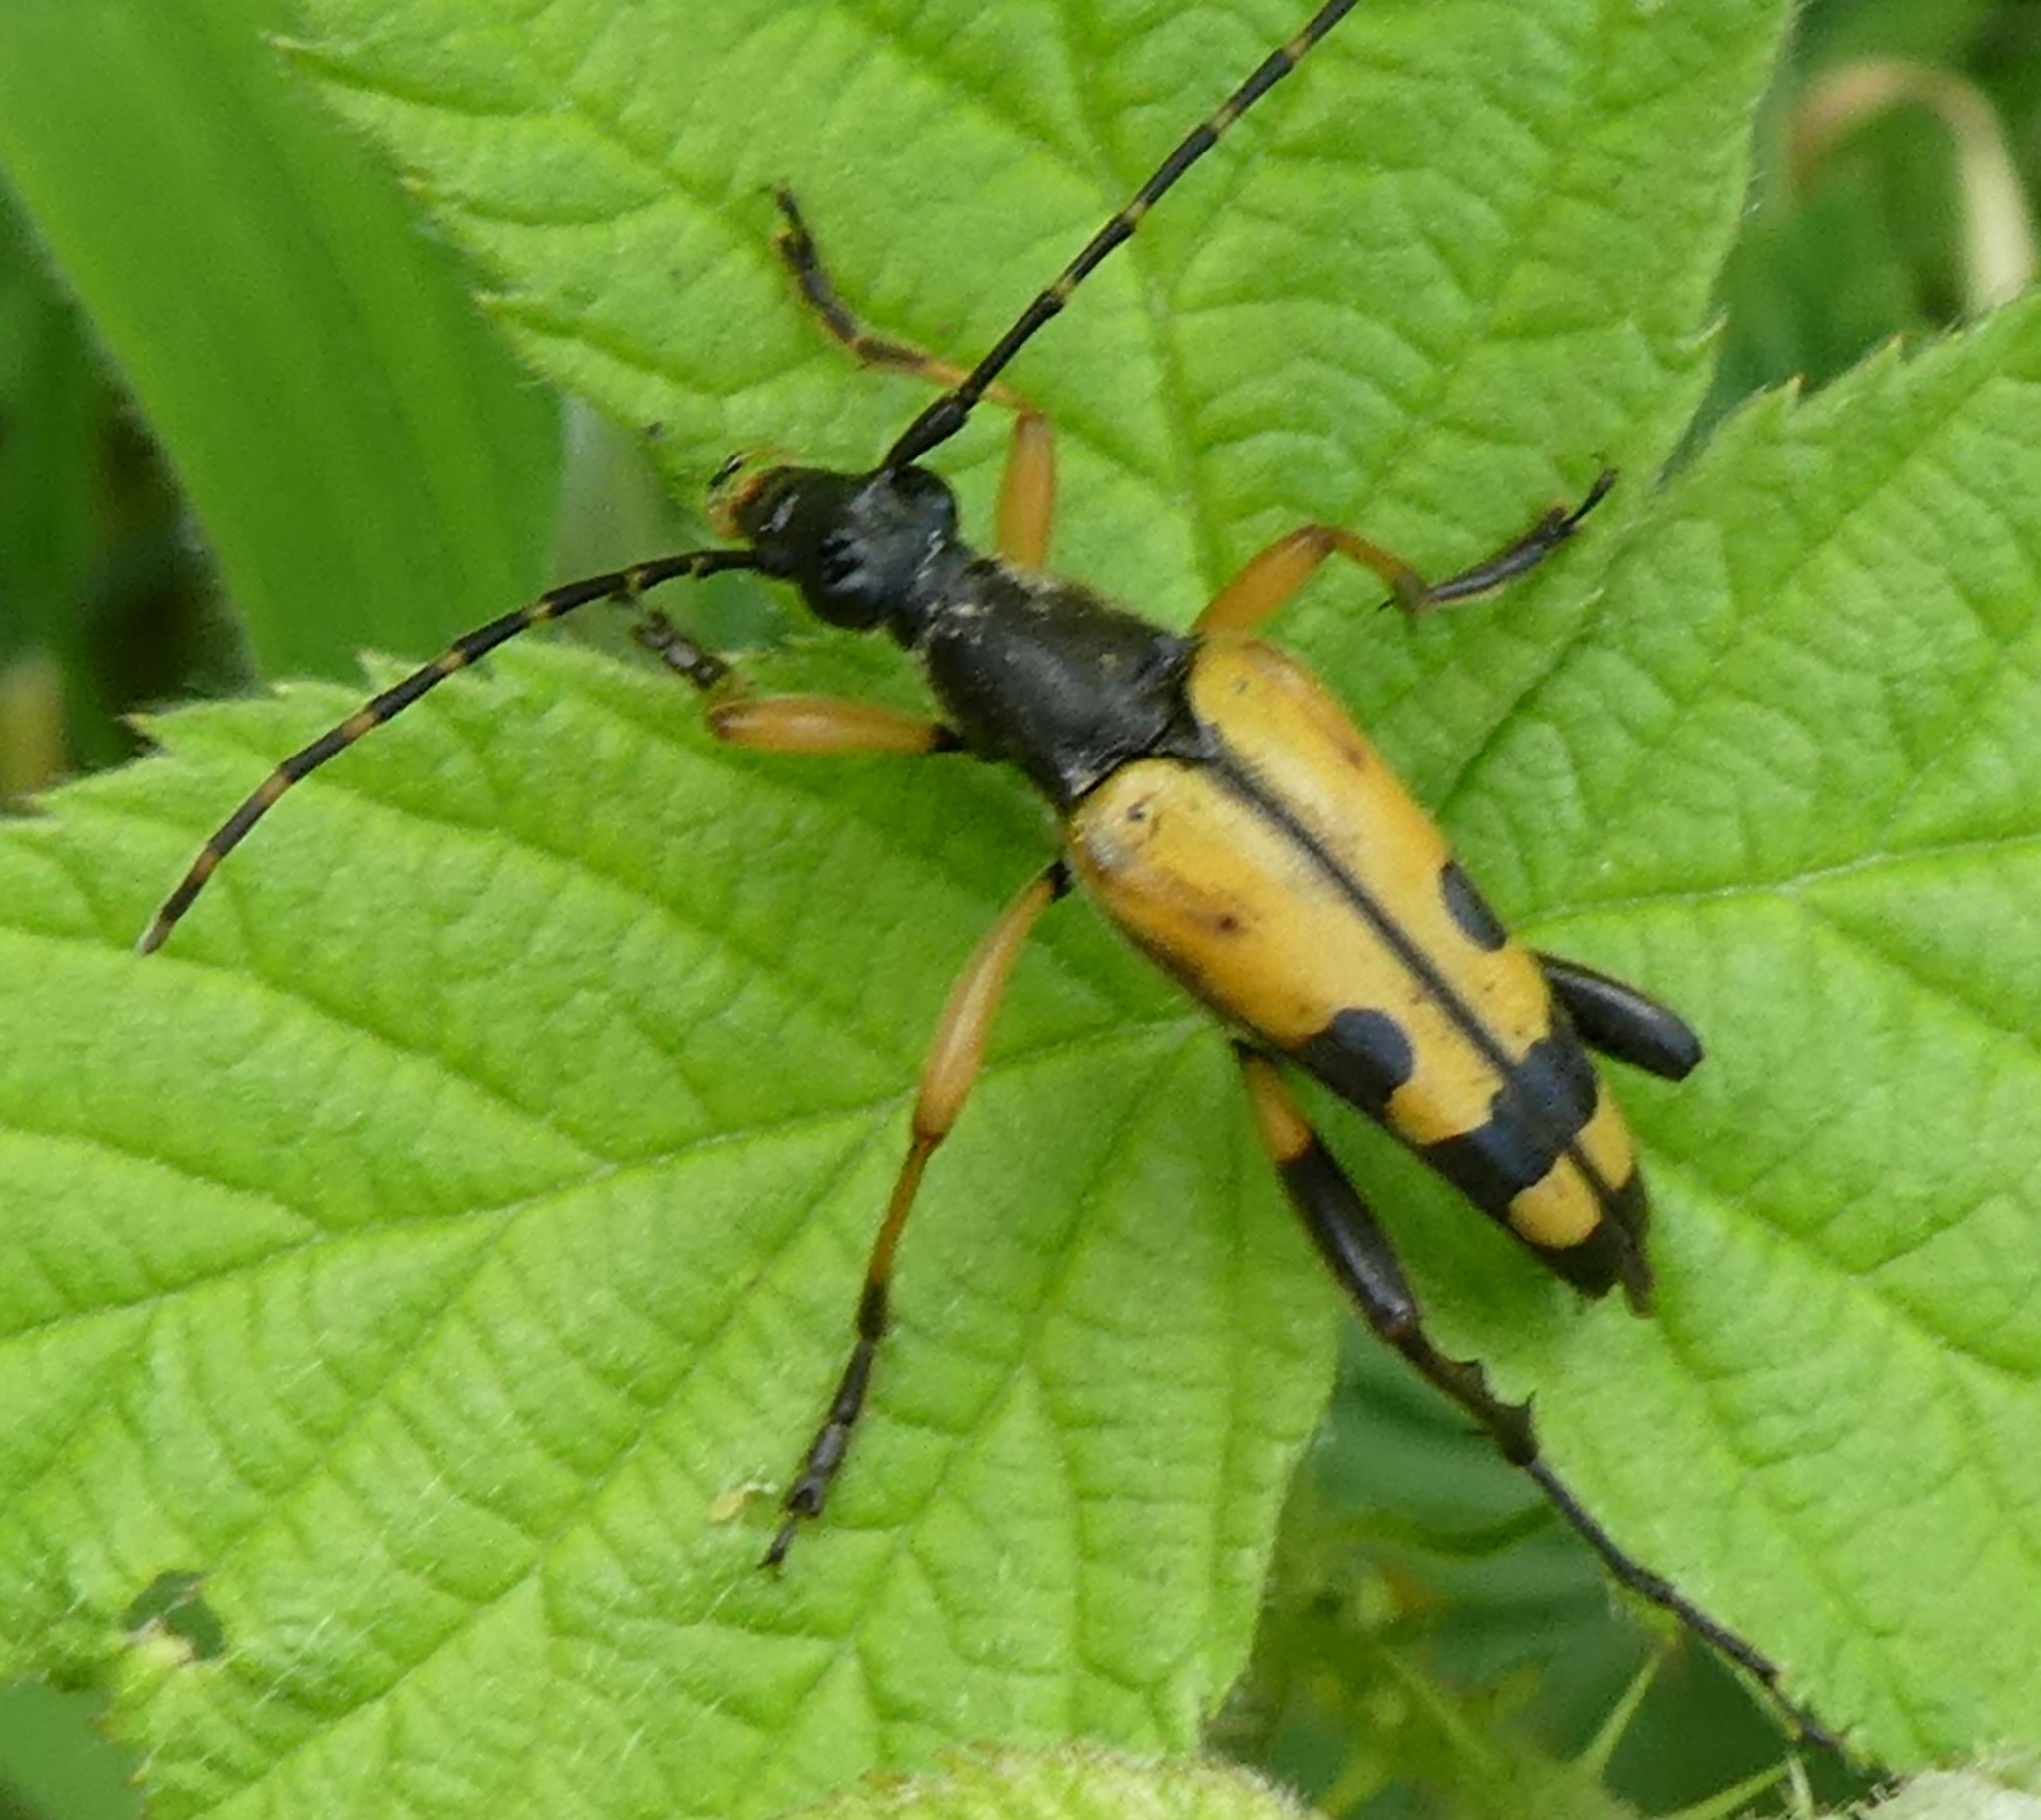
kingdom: Animalia
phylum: Arthropoda
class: Insecta
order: Coleoptera
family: Cerambycidae
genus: Rutpela
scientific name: Rutpela maculata
